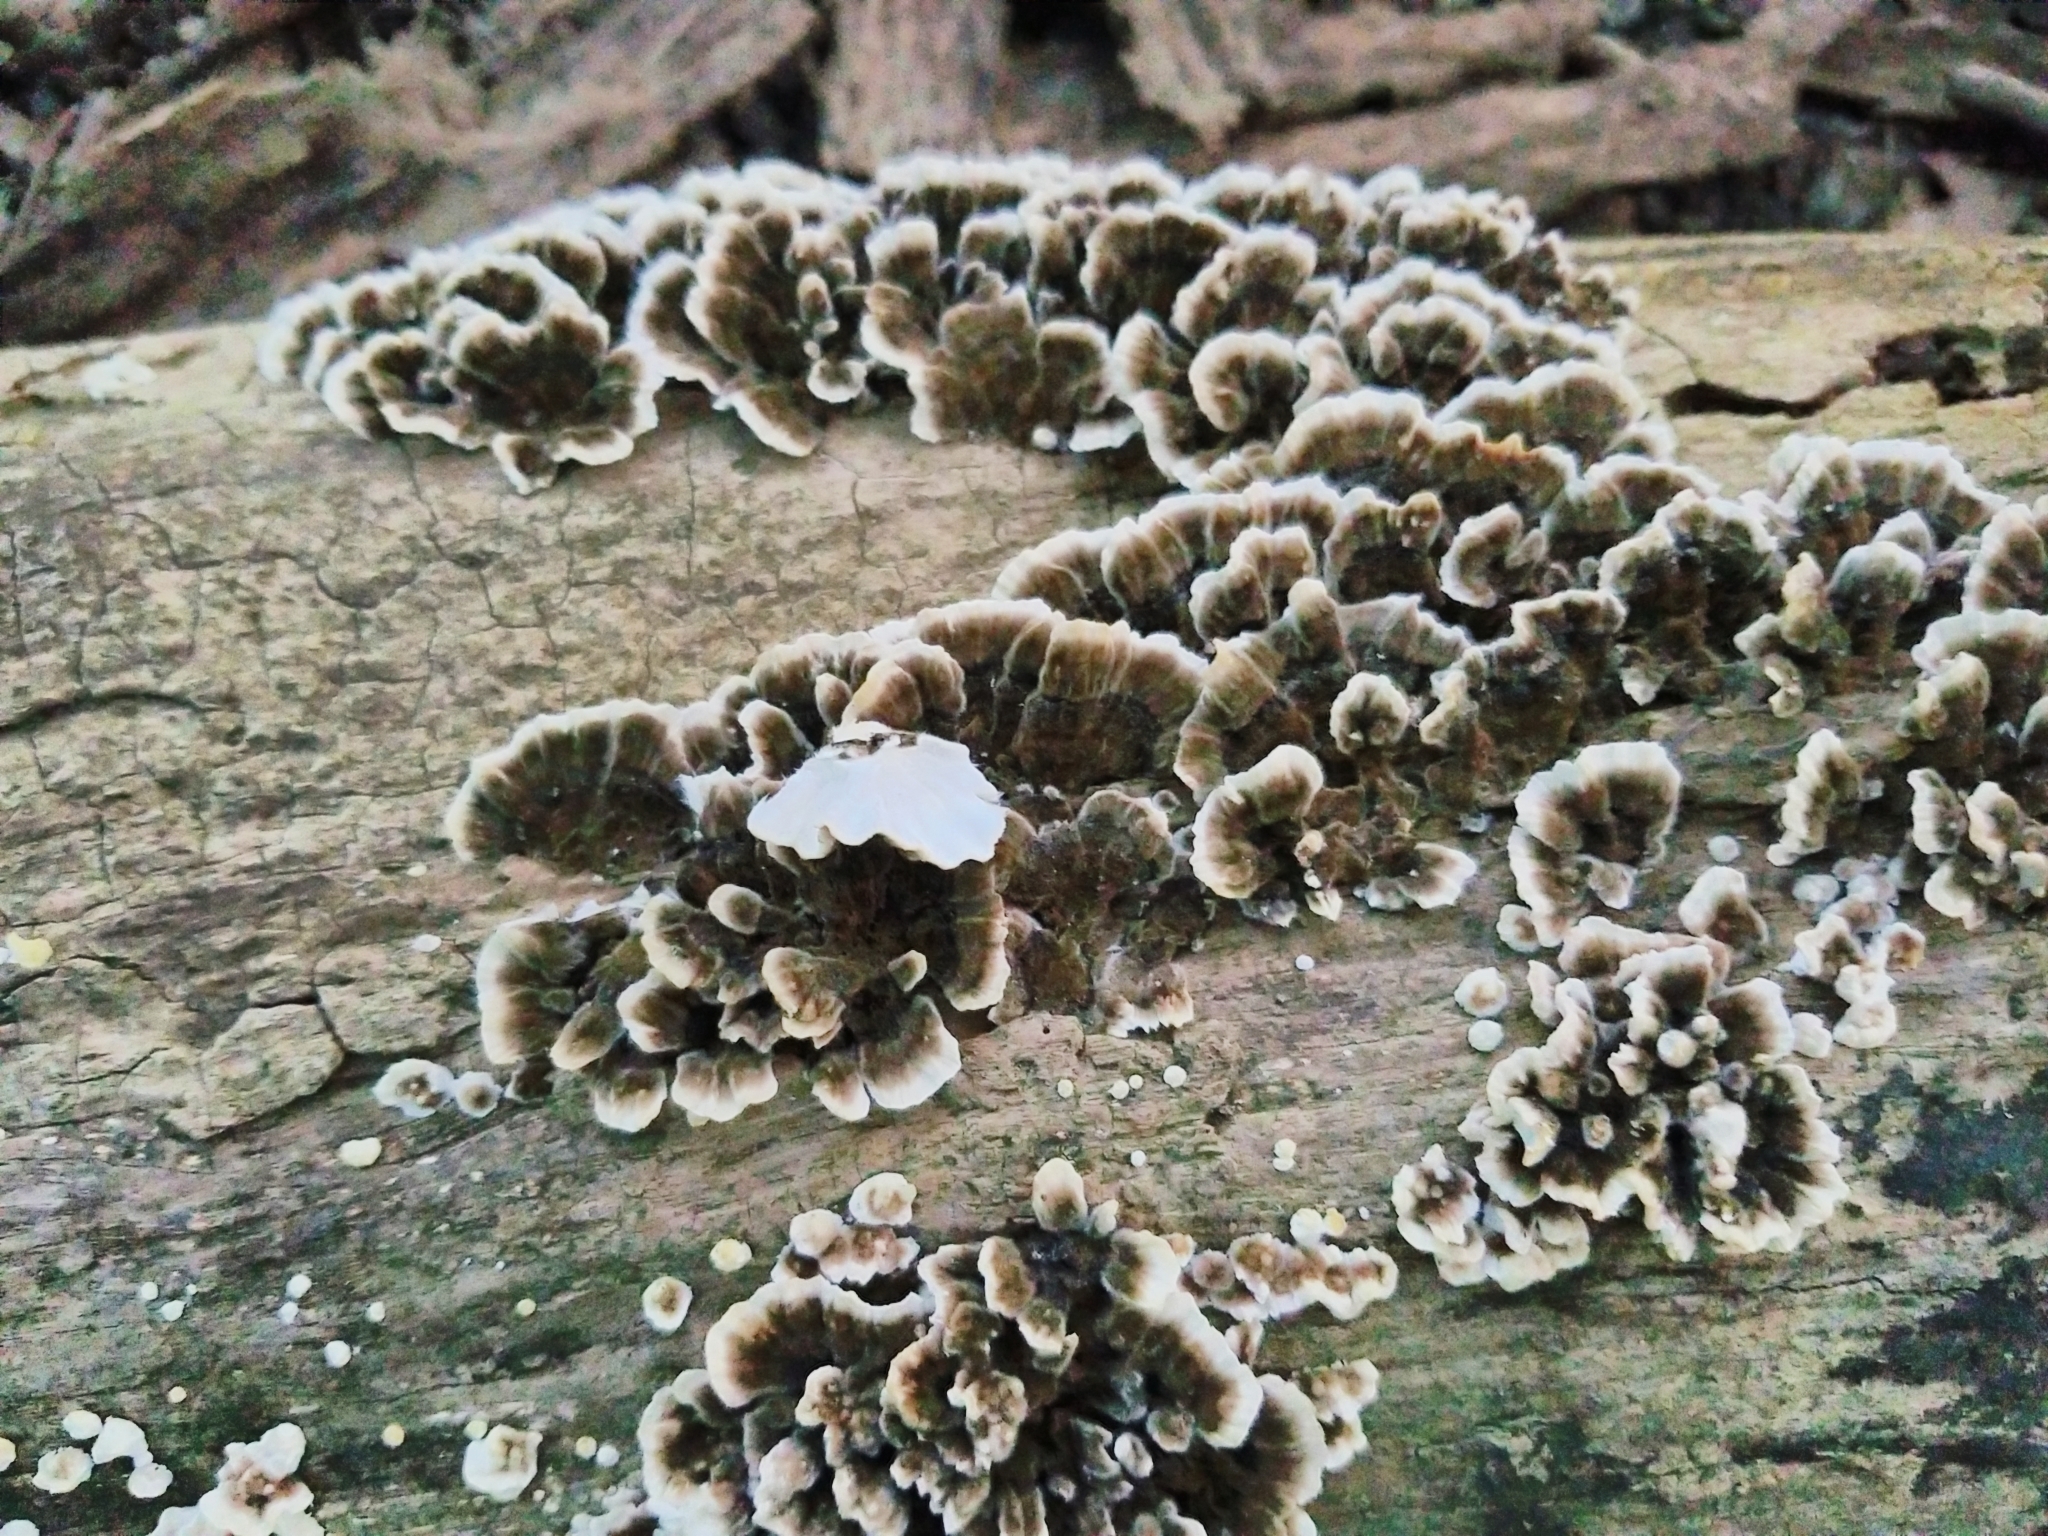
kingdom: Fungi
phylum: Basidiomycota
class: Agaricomycetes
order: Polyporales
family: Polyporaceae
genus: Trametes
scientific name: Trametes versicolor
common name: Turkeytail
